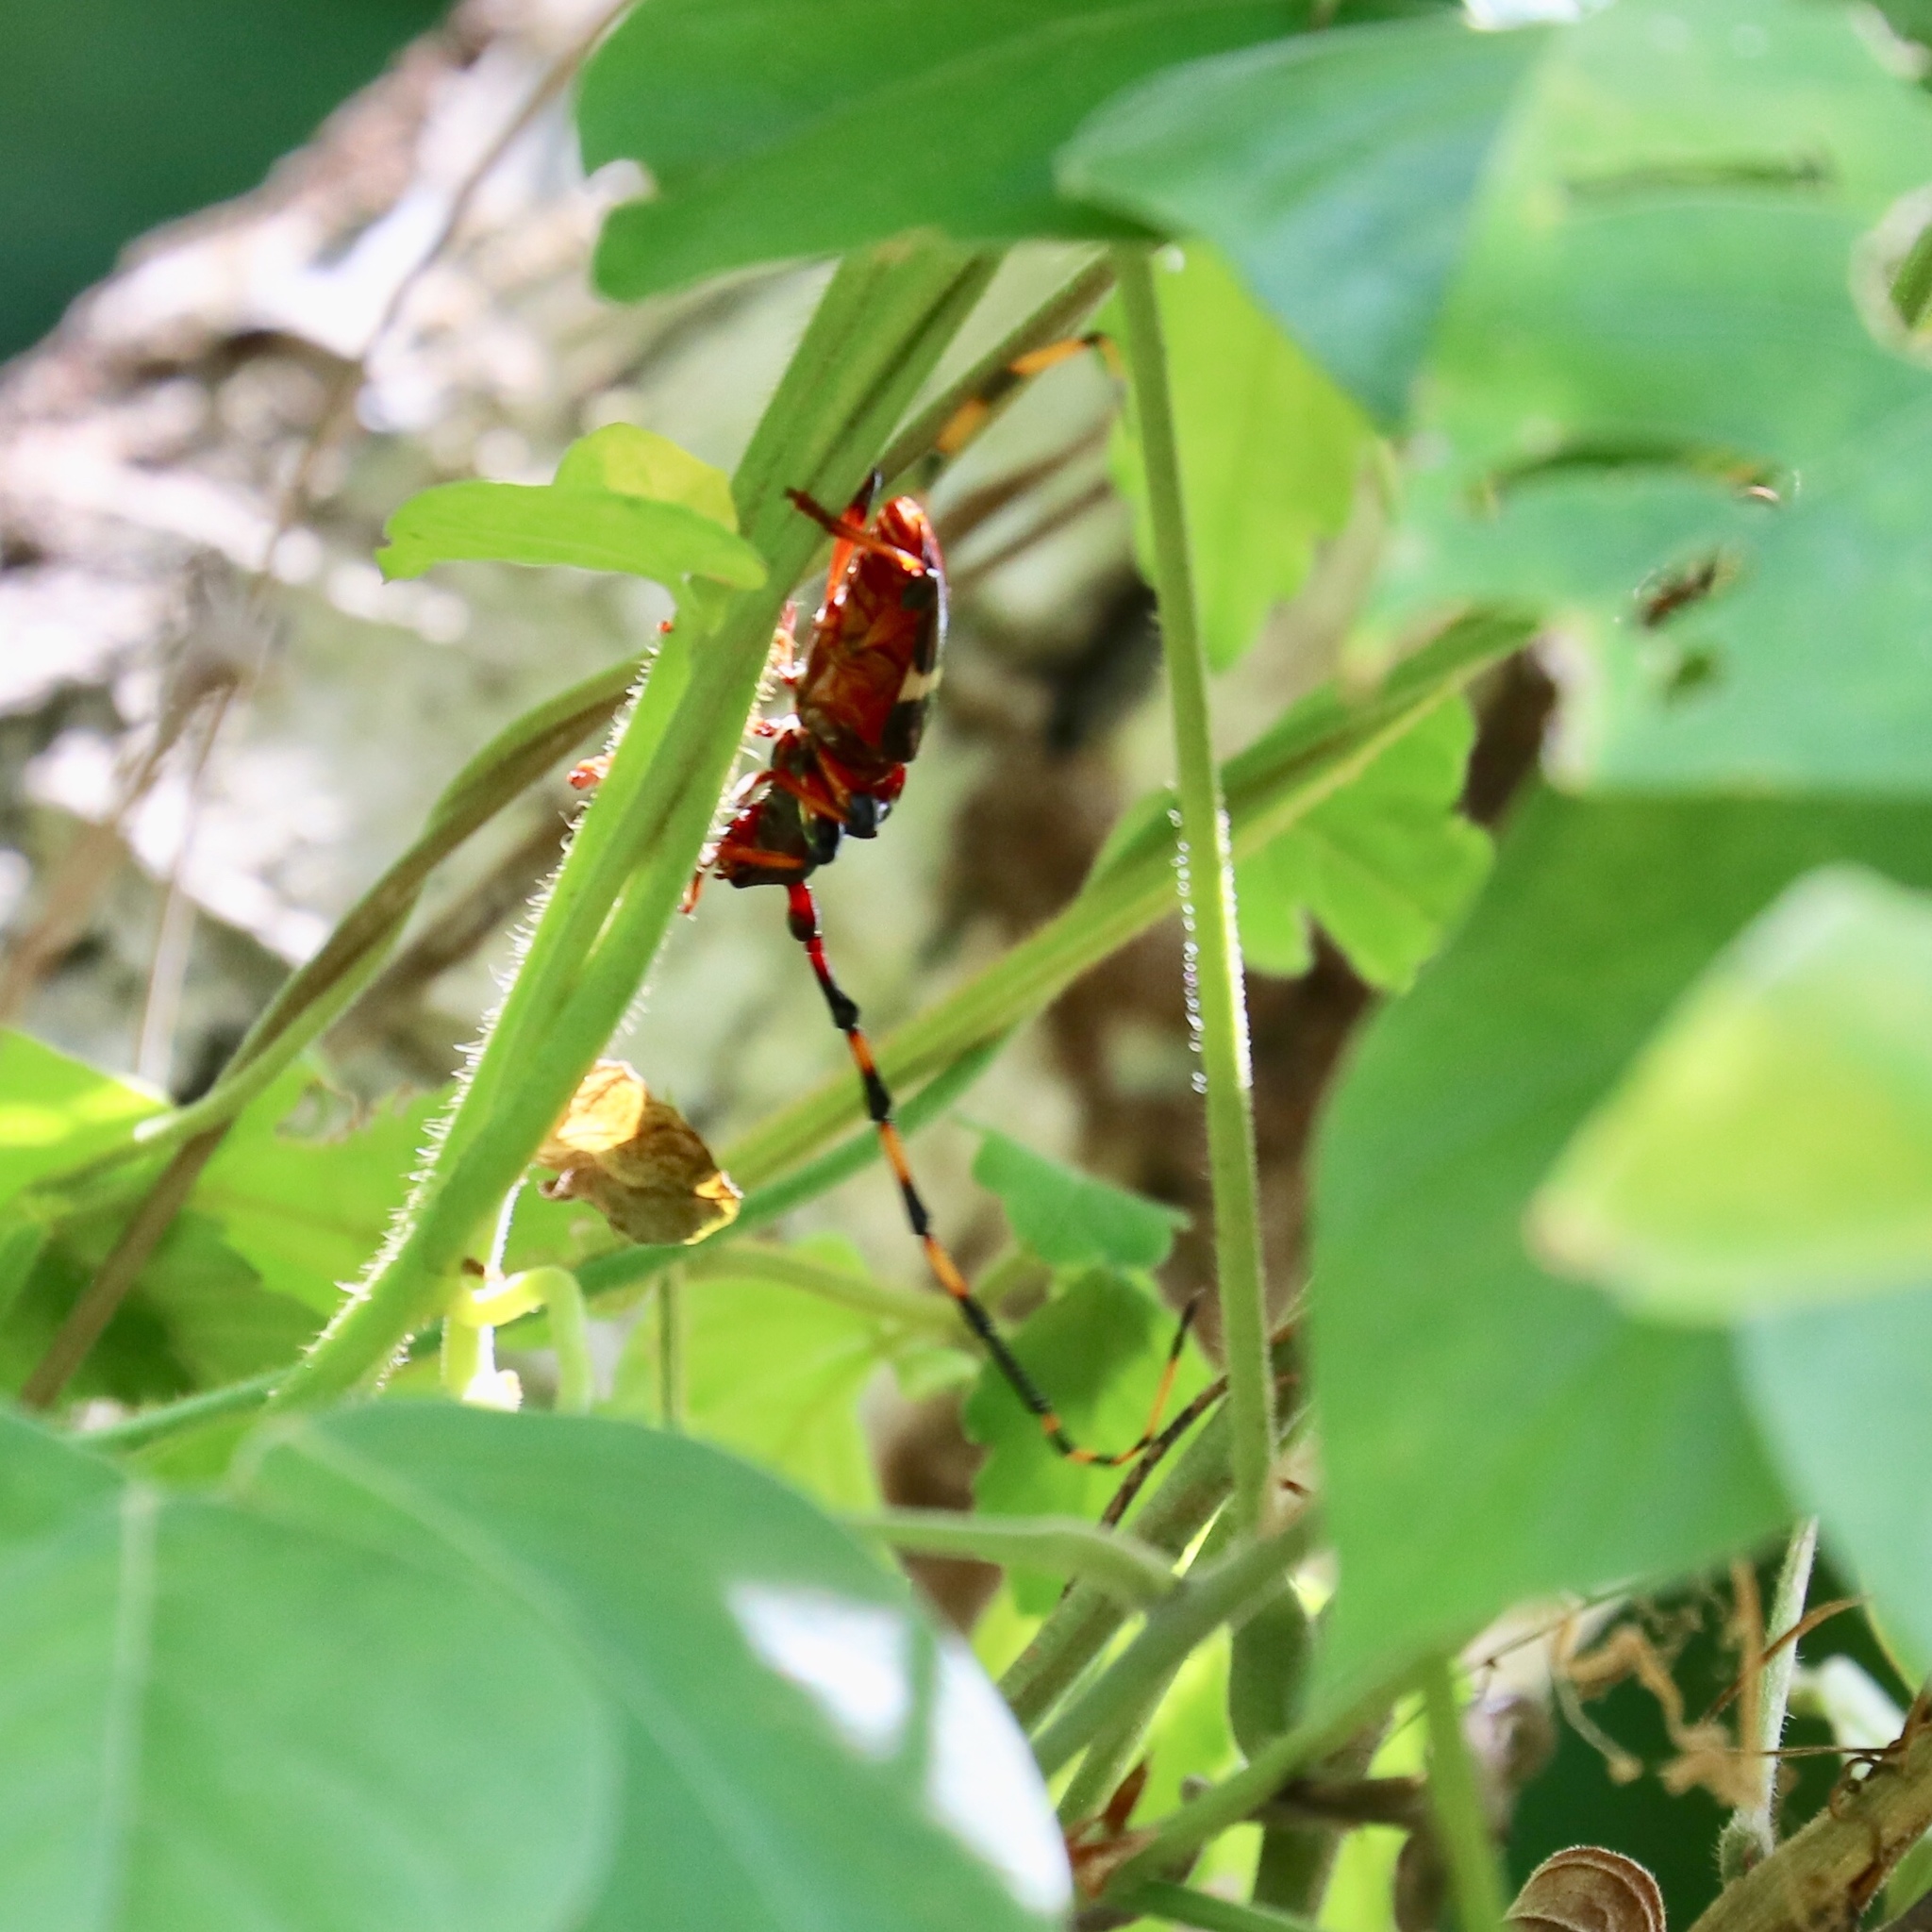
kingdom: Animalia
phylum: Arthropoda
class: Insecta
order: Coleoptera
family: Cerambycidae
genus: Trachyderes
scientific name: Trachyderes succinctus
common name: Mango longhorn
